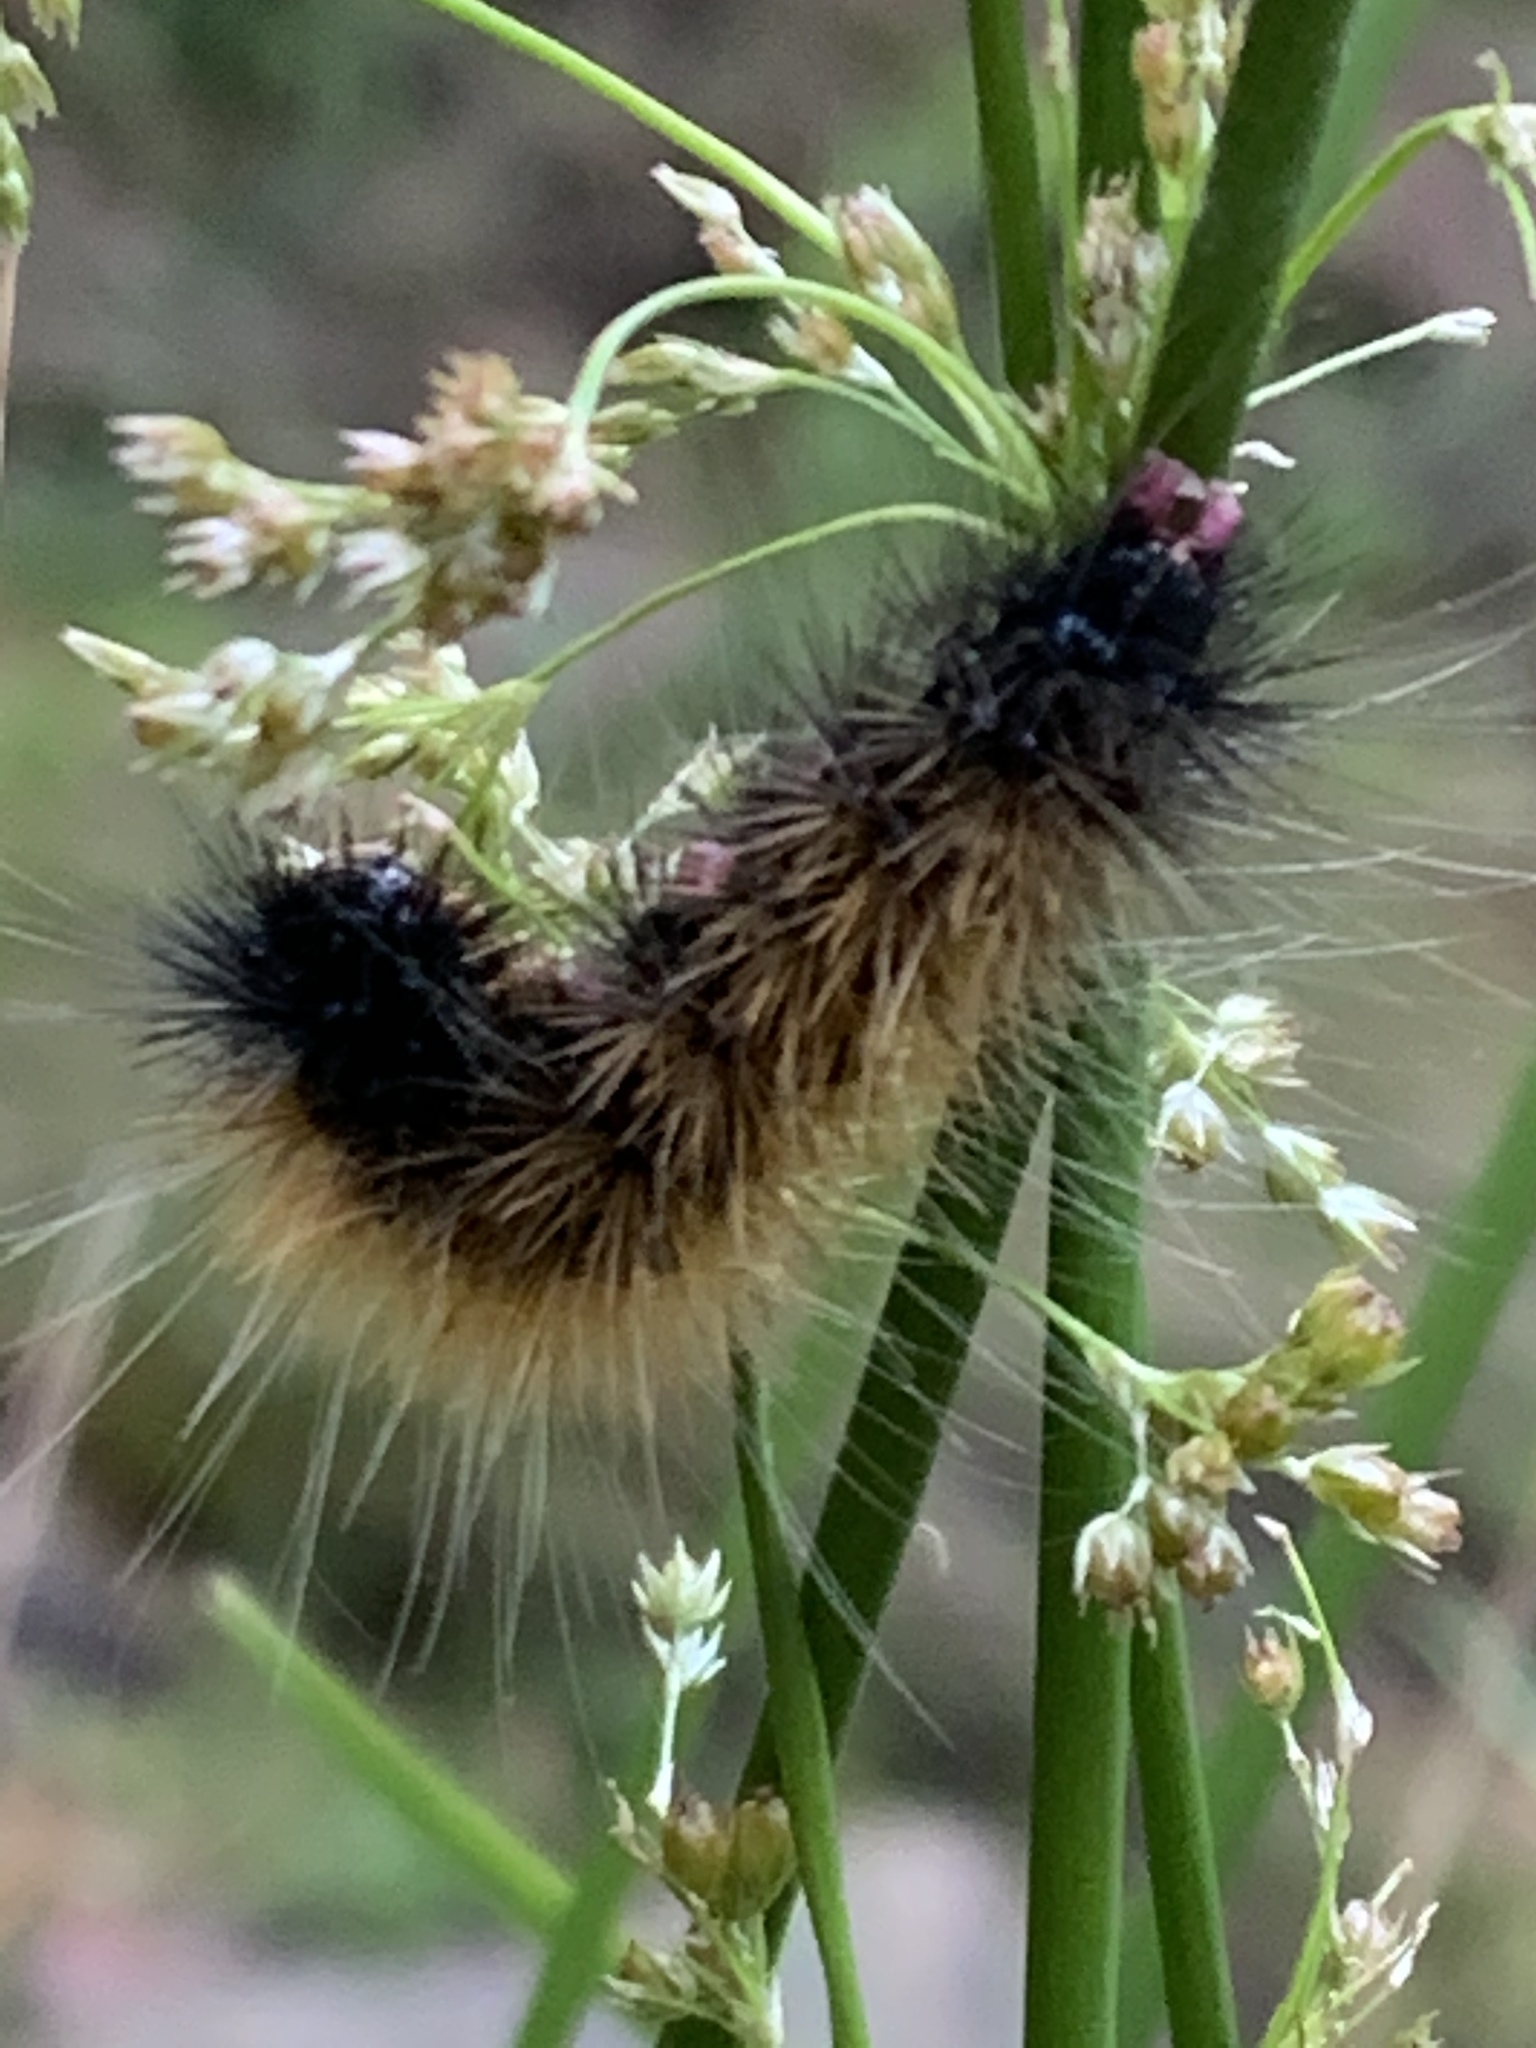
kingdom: Animalia
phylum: Arthropoda
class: Insecta
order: Lepidoptera
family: Erebidae
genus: Rhodogastria
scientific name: Rhodogastria amasis
